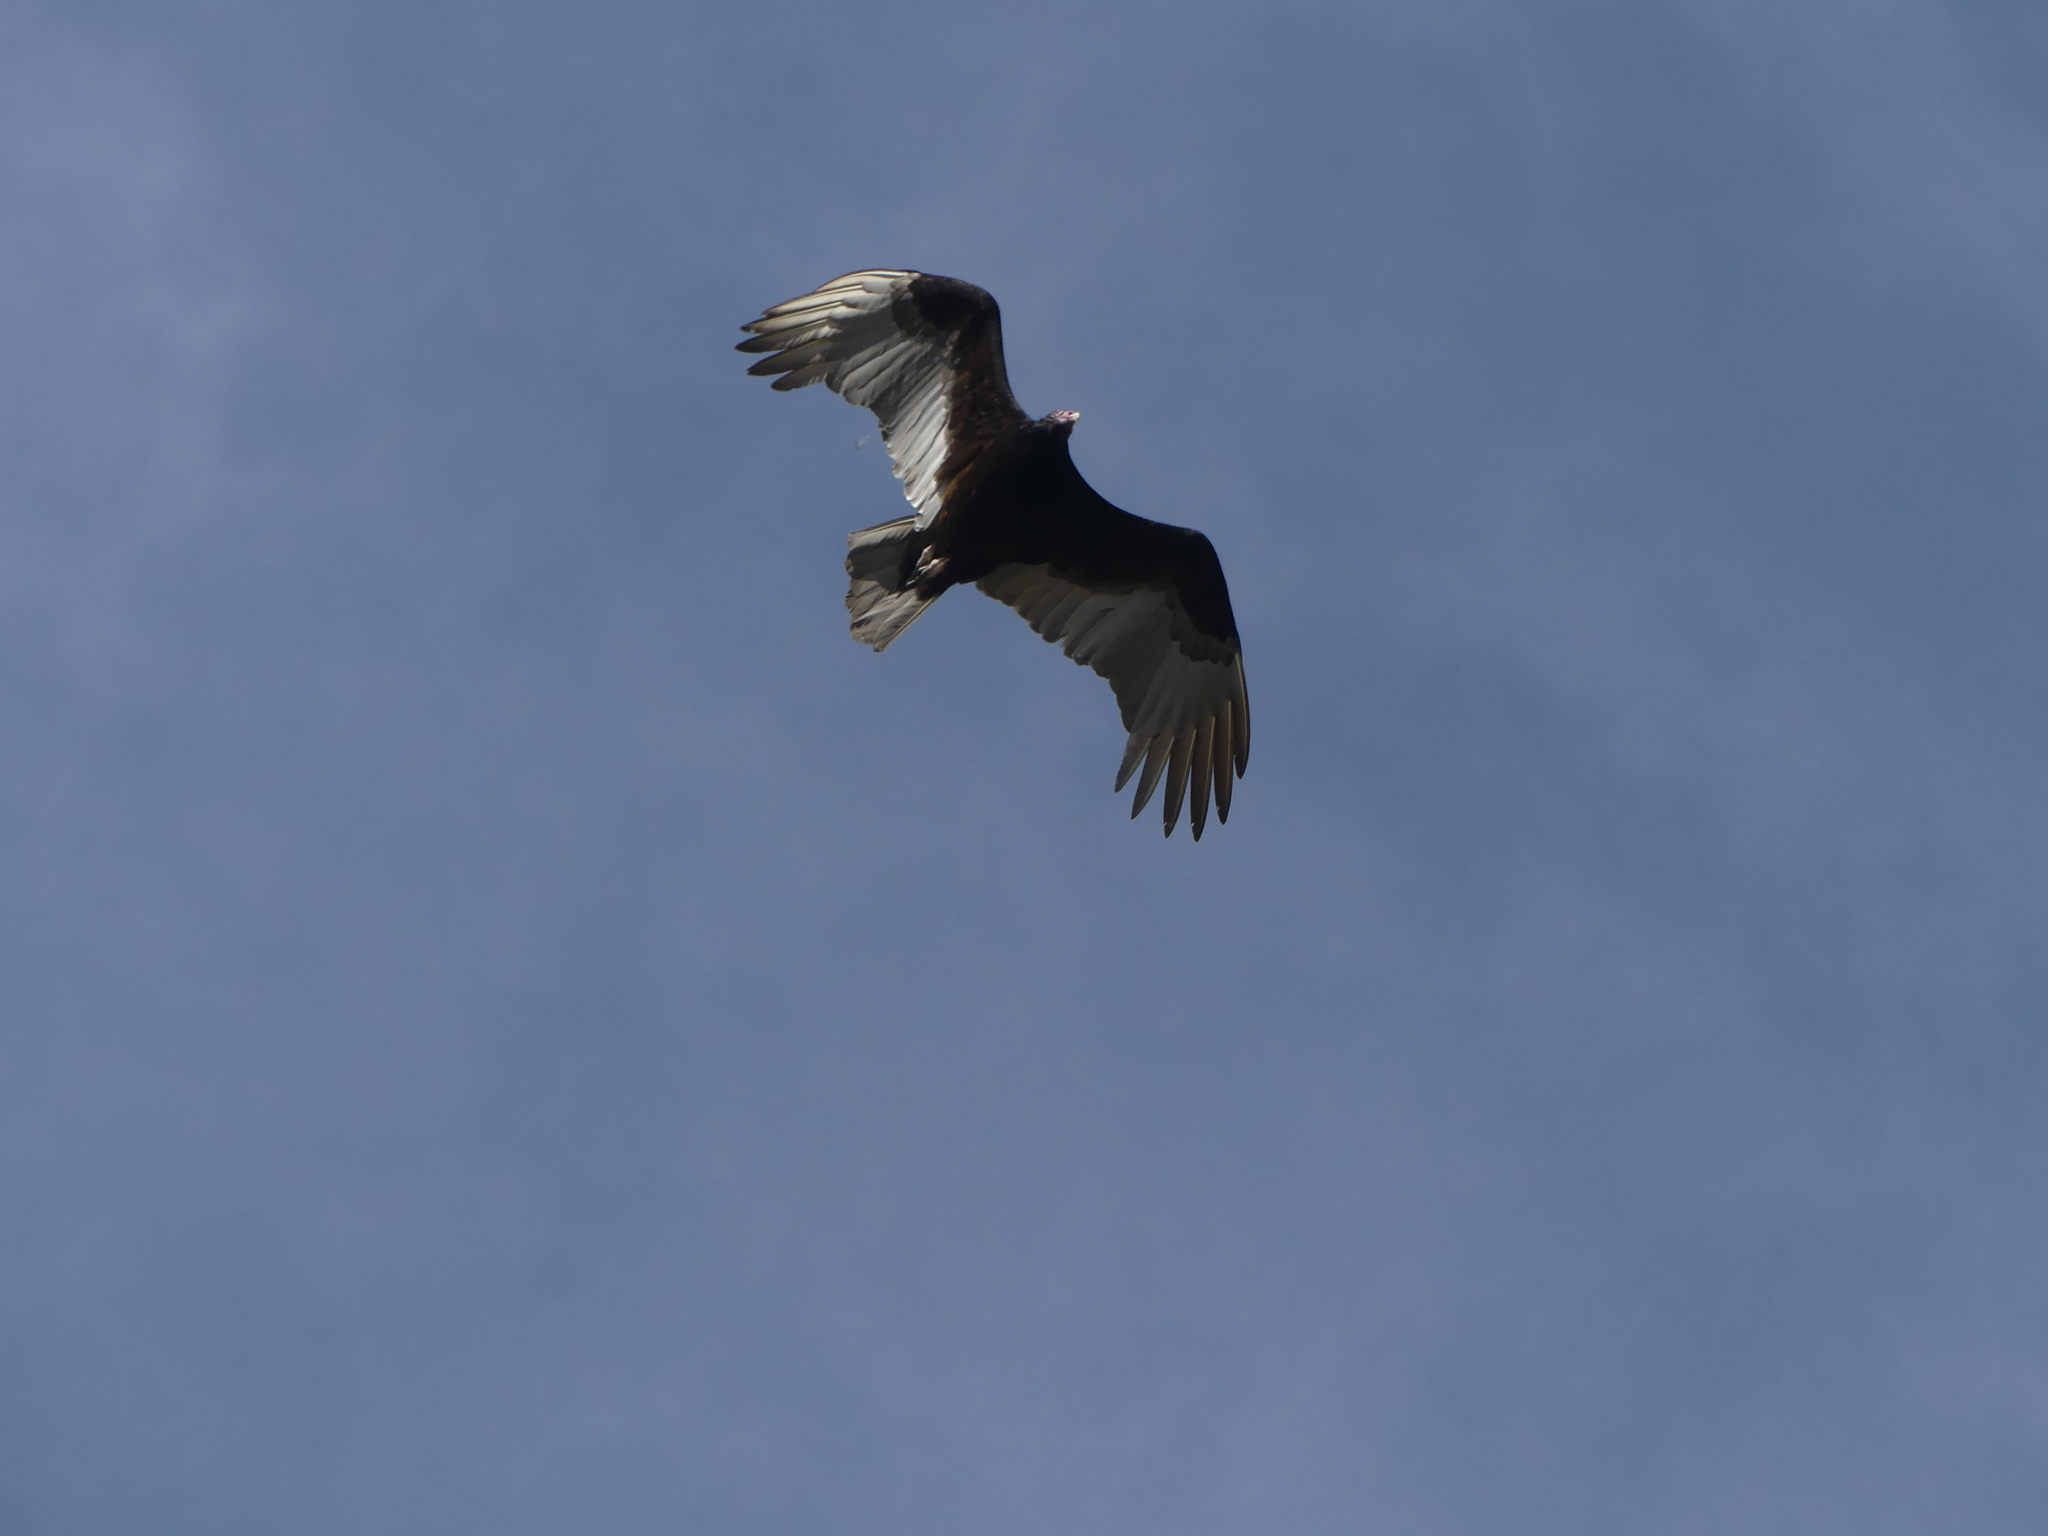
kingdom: Animalia
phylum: Chordata
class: Aves
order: Accipitriformes
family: Cathartidae
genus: Cathartes
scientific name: Cathartes aura
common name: Turkey vulture
